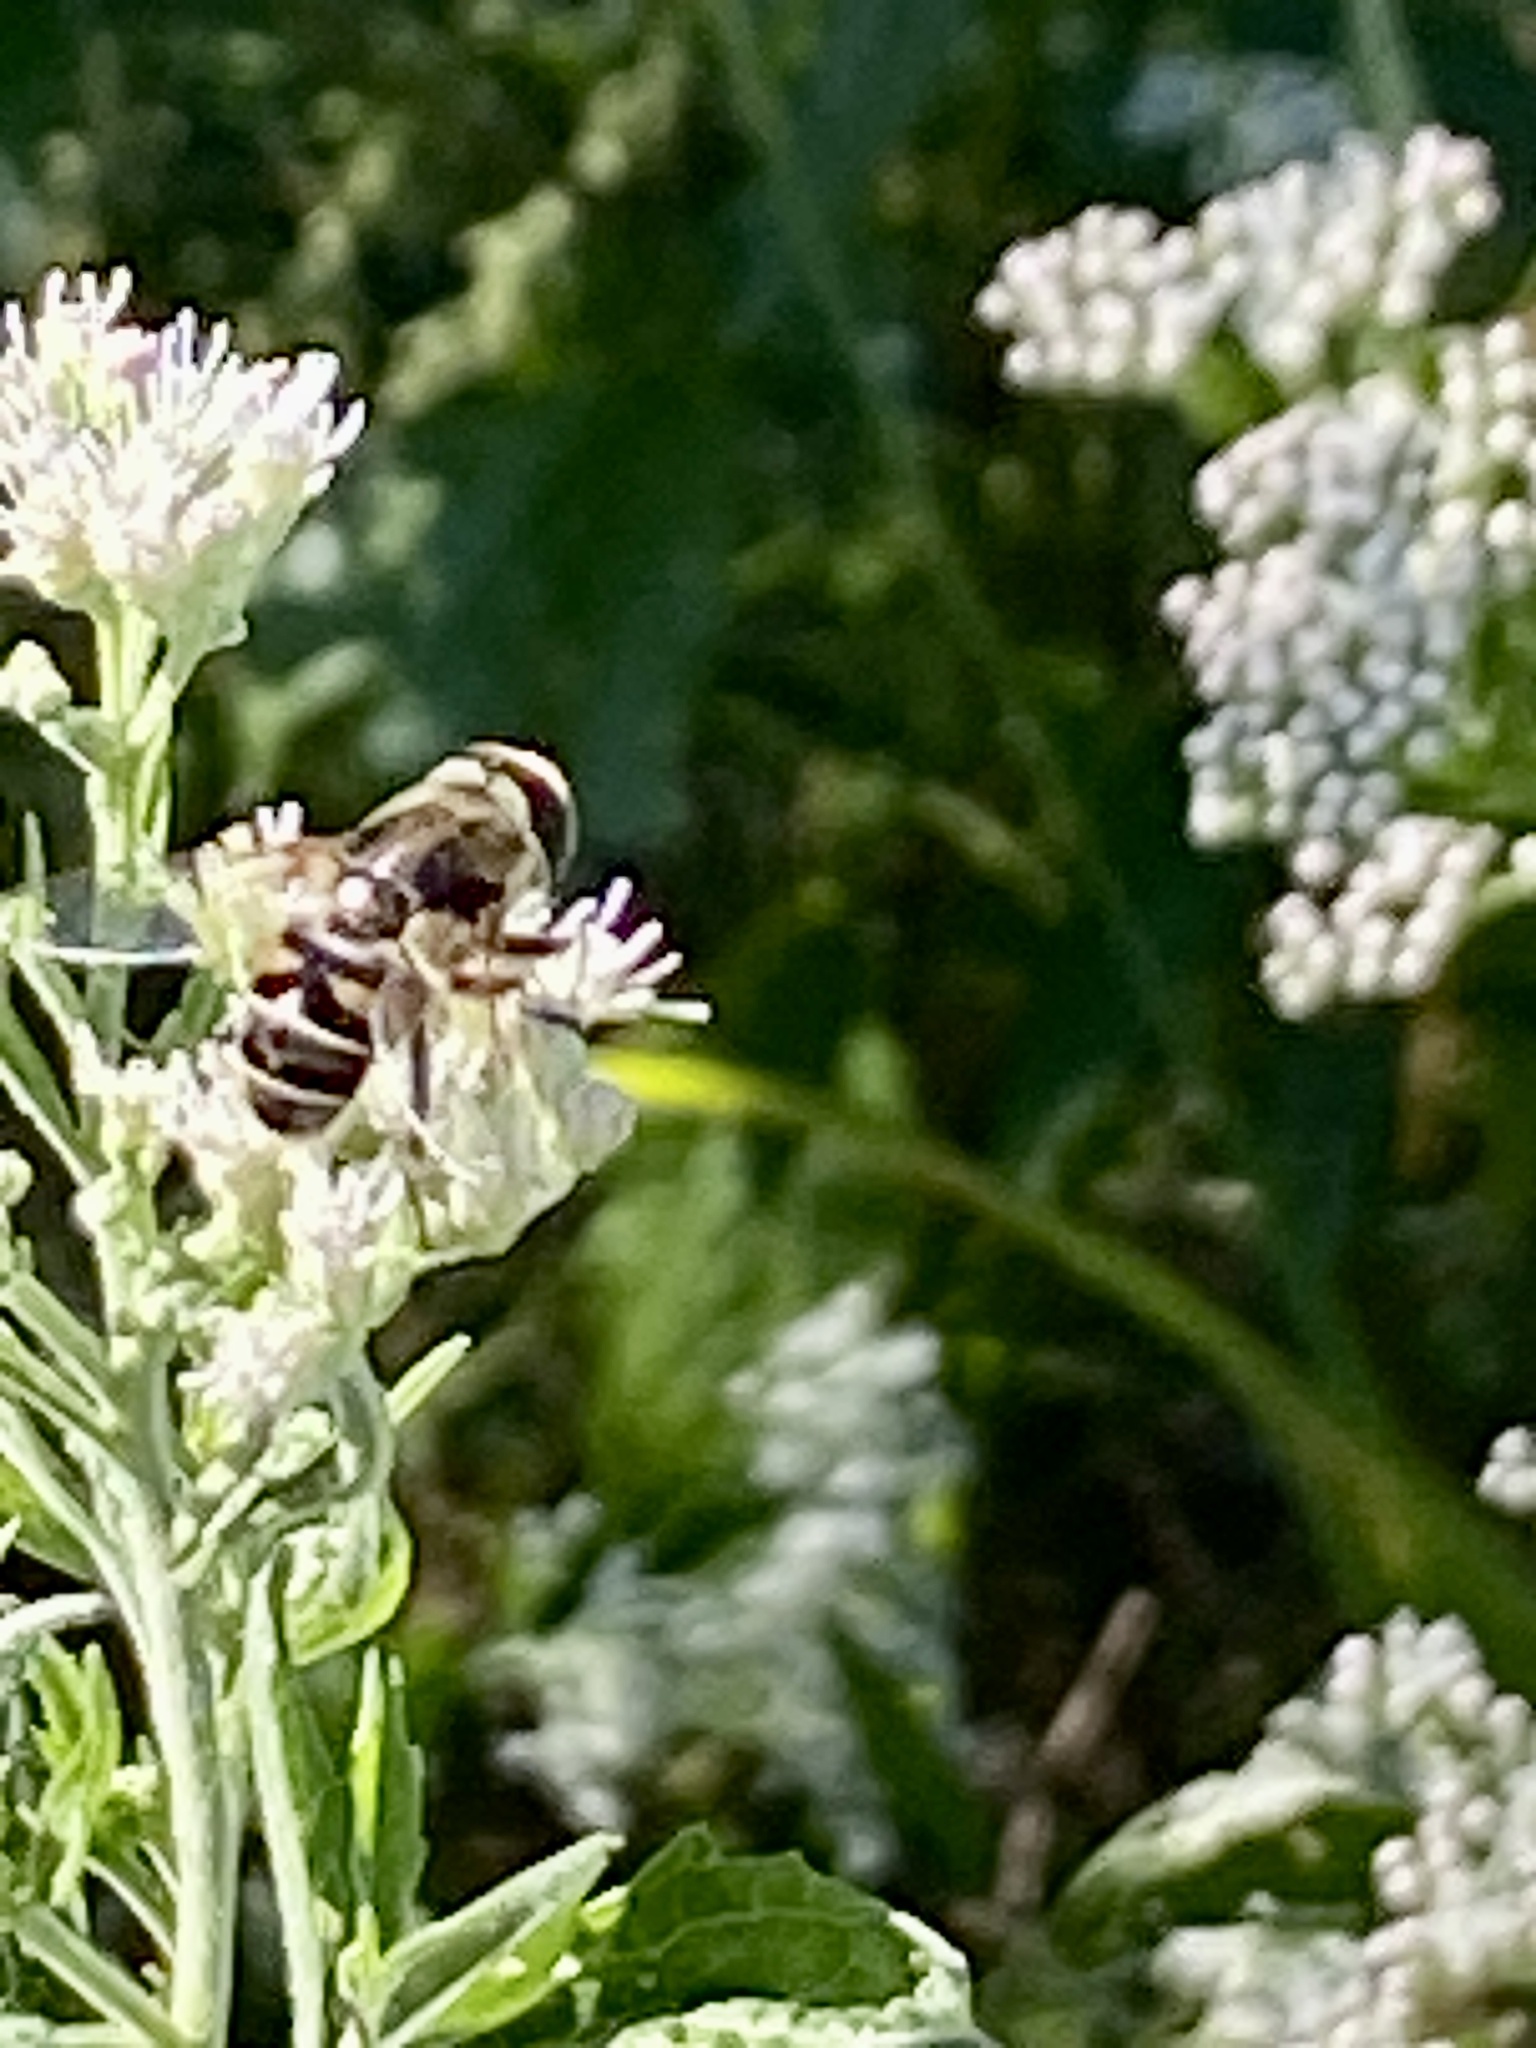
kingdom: Animalia
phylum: Arthropoda
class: Insecta
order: Diptera
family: Syrphidae
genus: Eristalis
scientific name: Eristalis dimidiata
